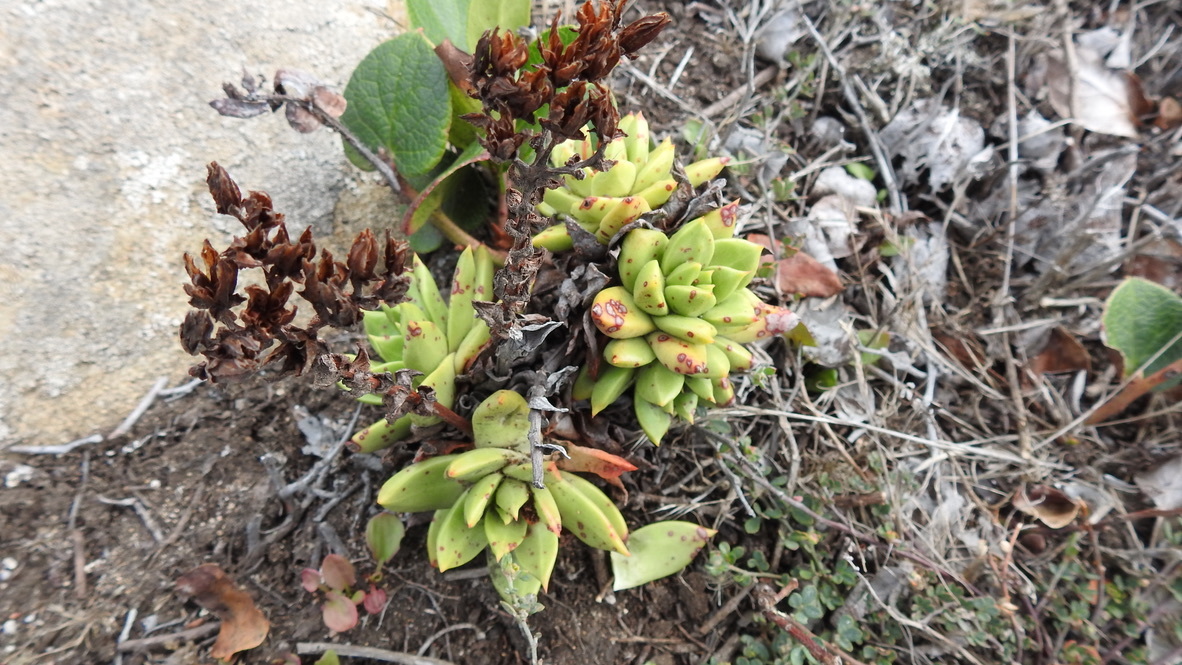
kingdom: Plantae
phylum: Tracheophyta
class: Magnoliopsida
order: Saxifragales
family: Crassulaceae
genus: Dudleya
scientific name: Dudleya farinosa
